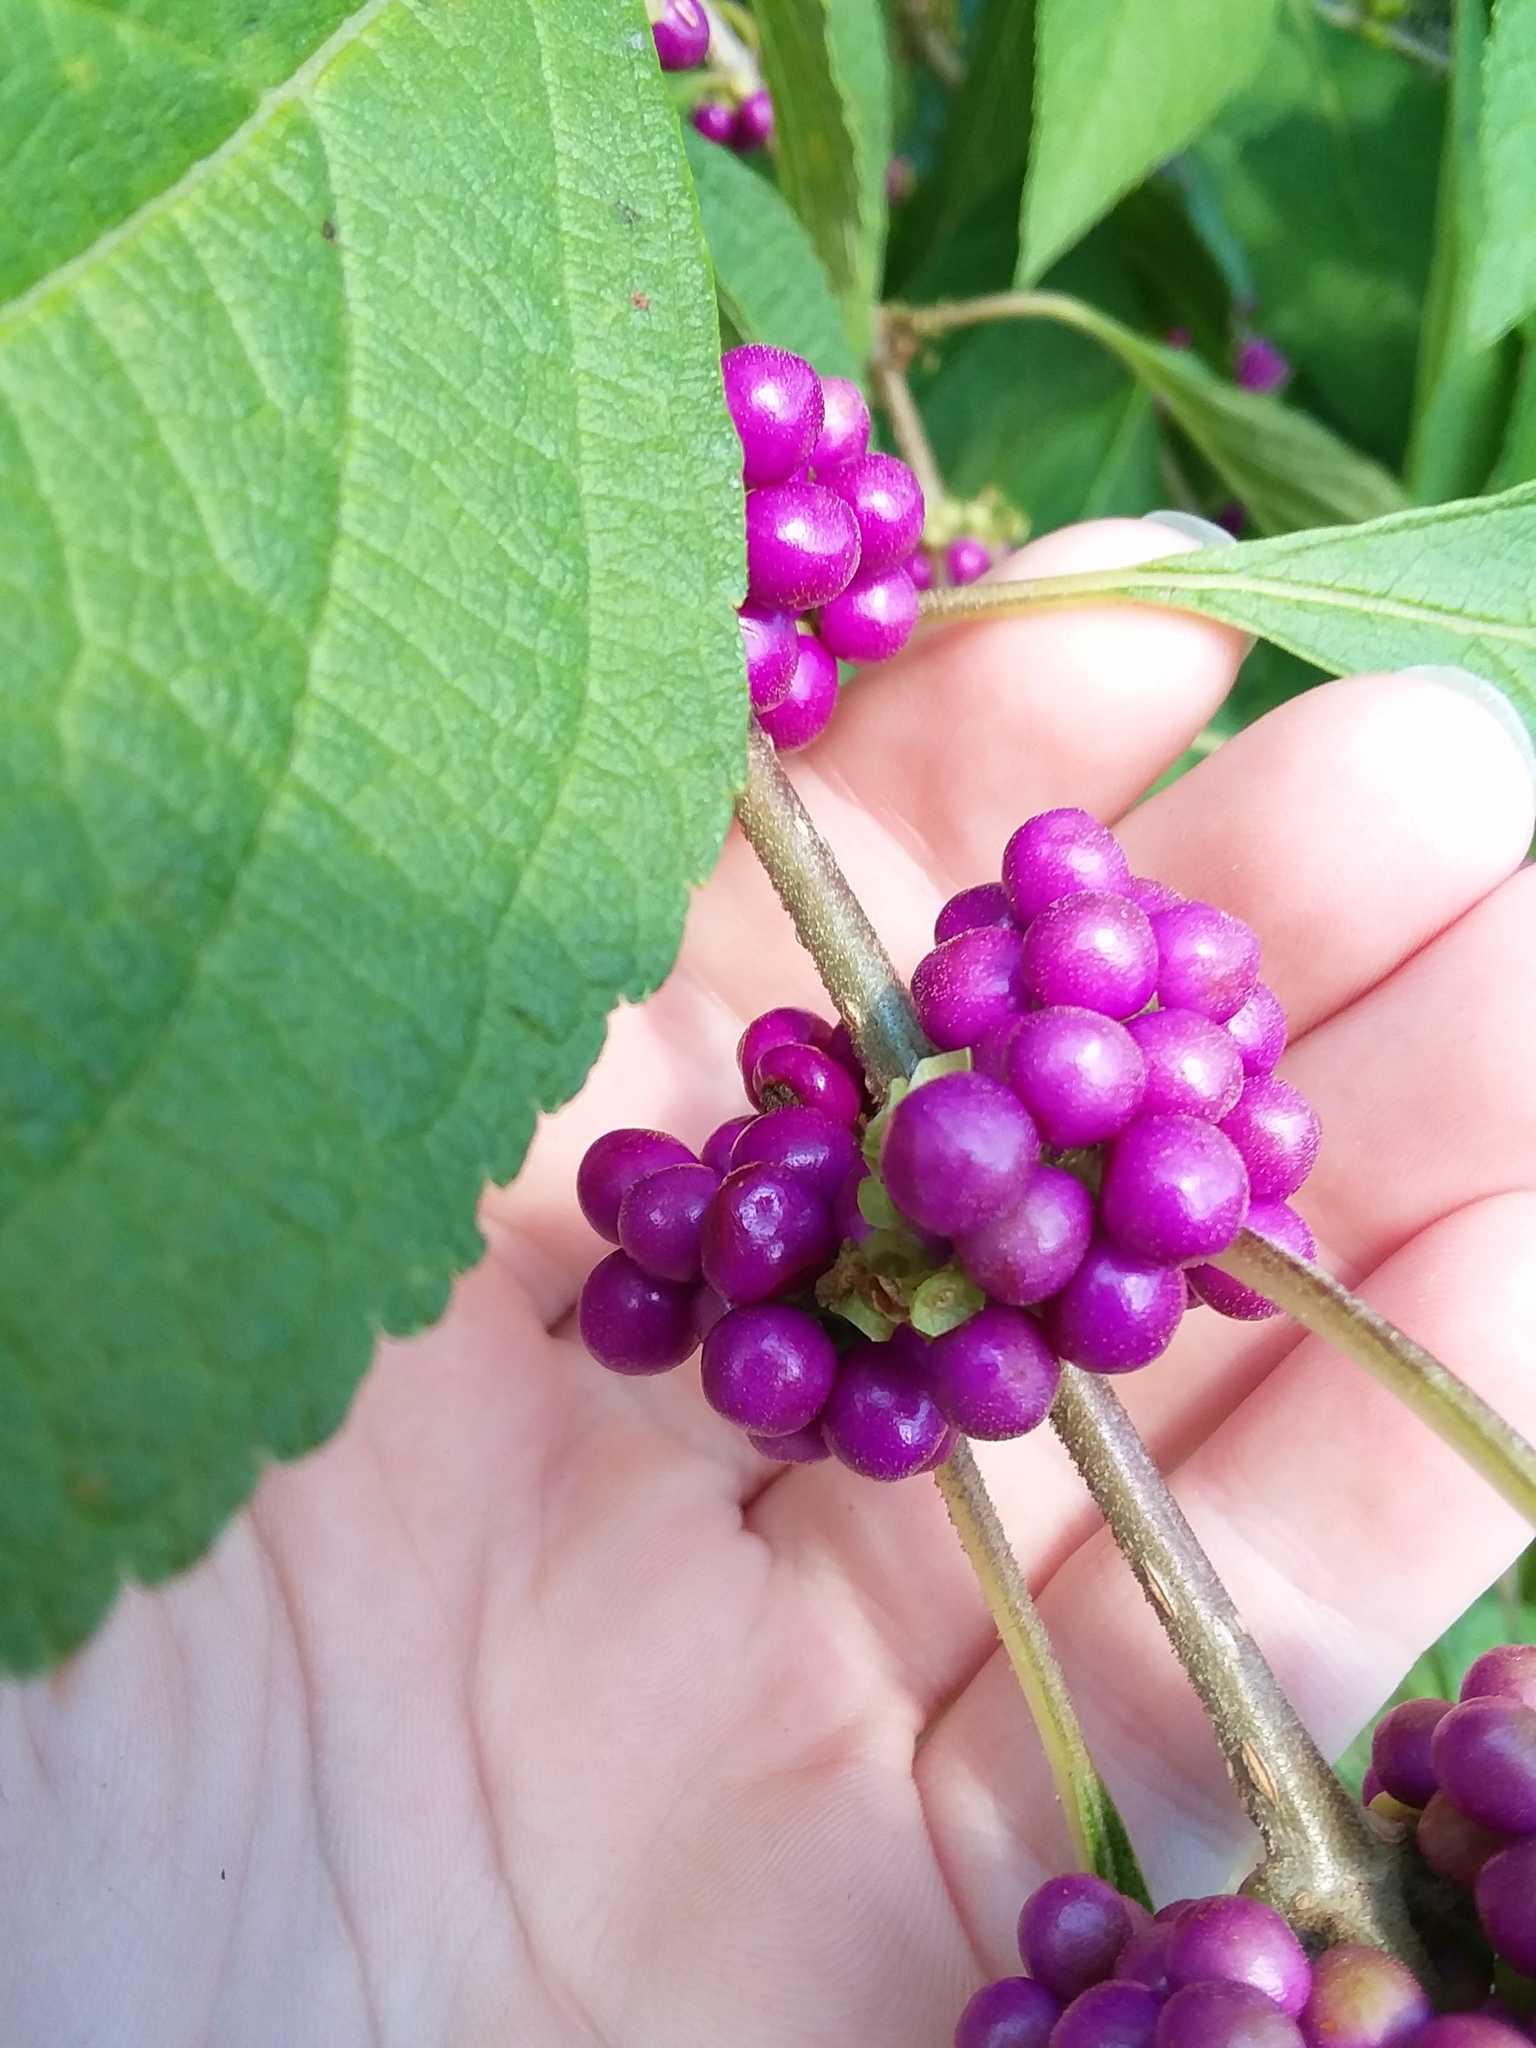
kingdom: Plantae
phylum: Tracheophyta
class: Magnoliopsida
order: Lamiales
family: Lamiaceae
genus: Callicarpa
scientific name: Callicarpa americana
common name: American beautyberry
